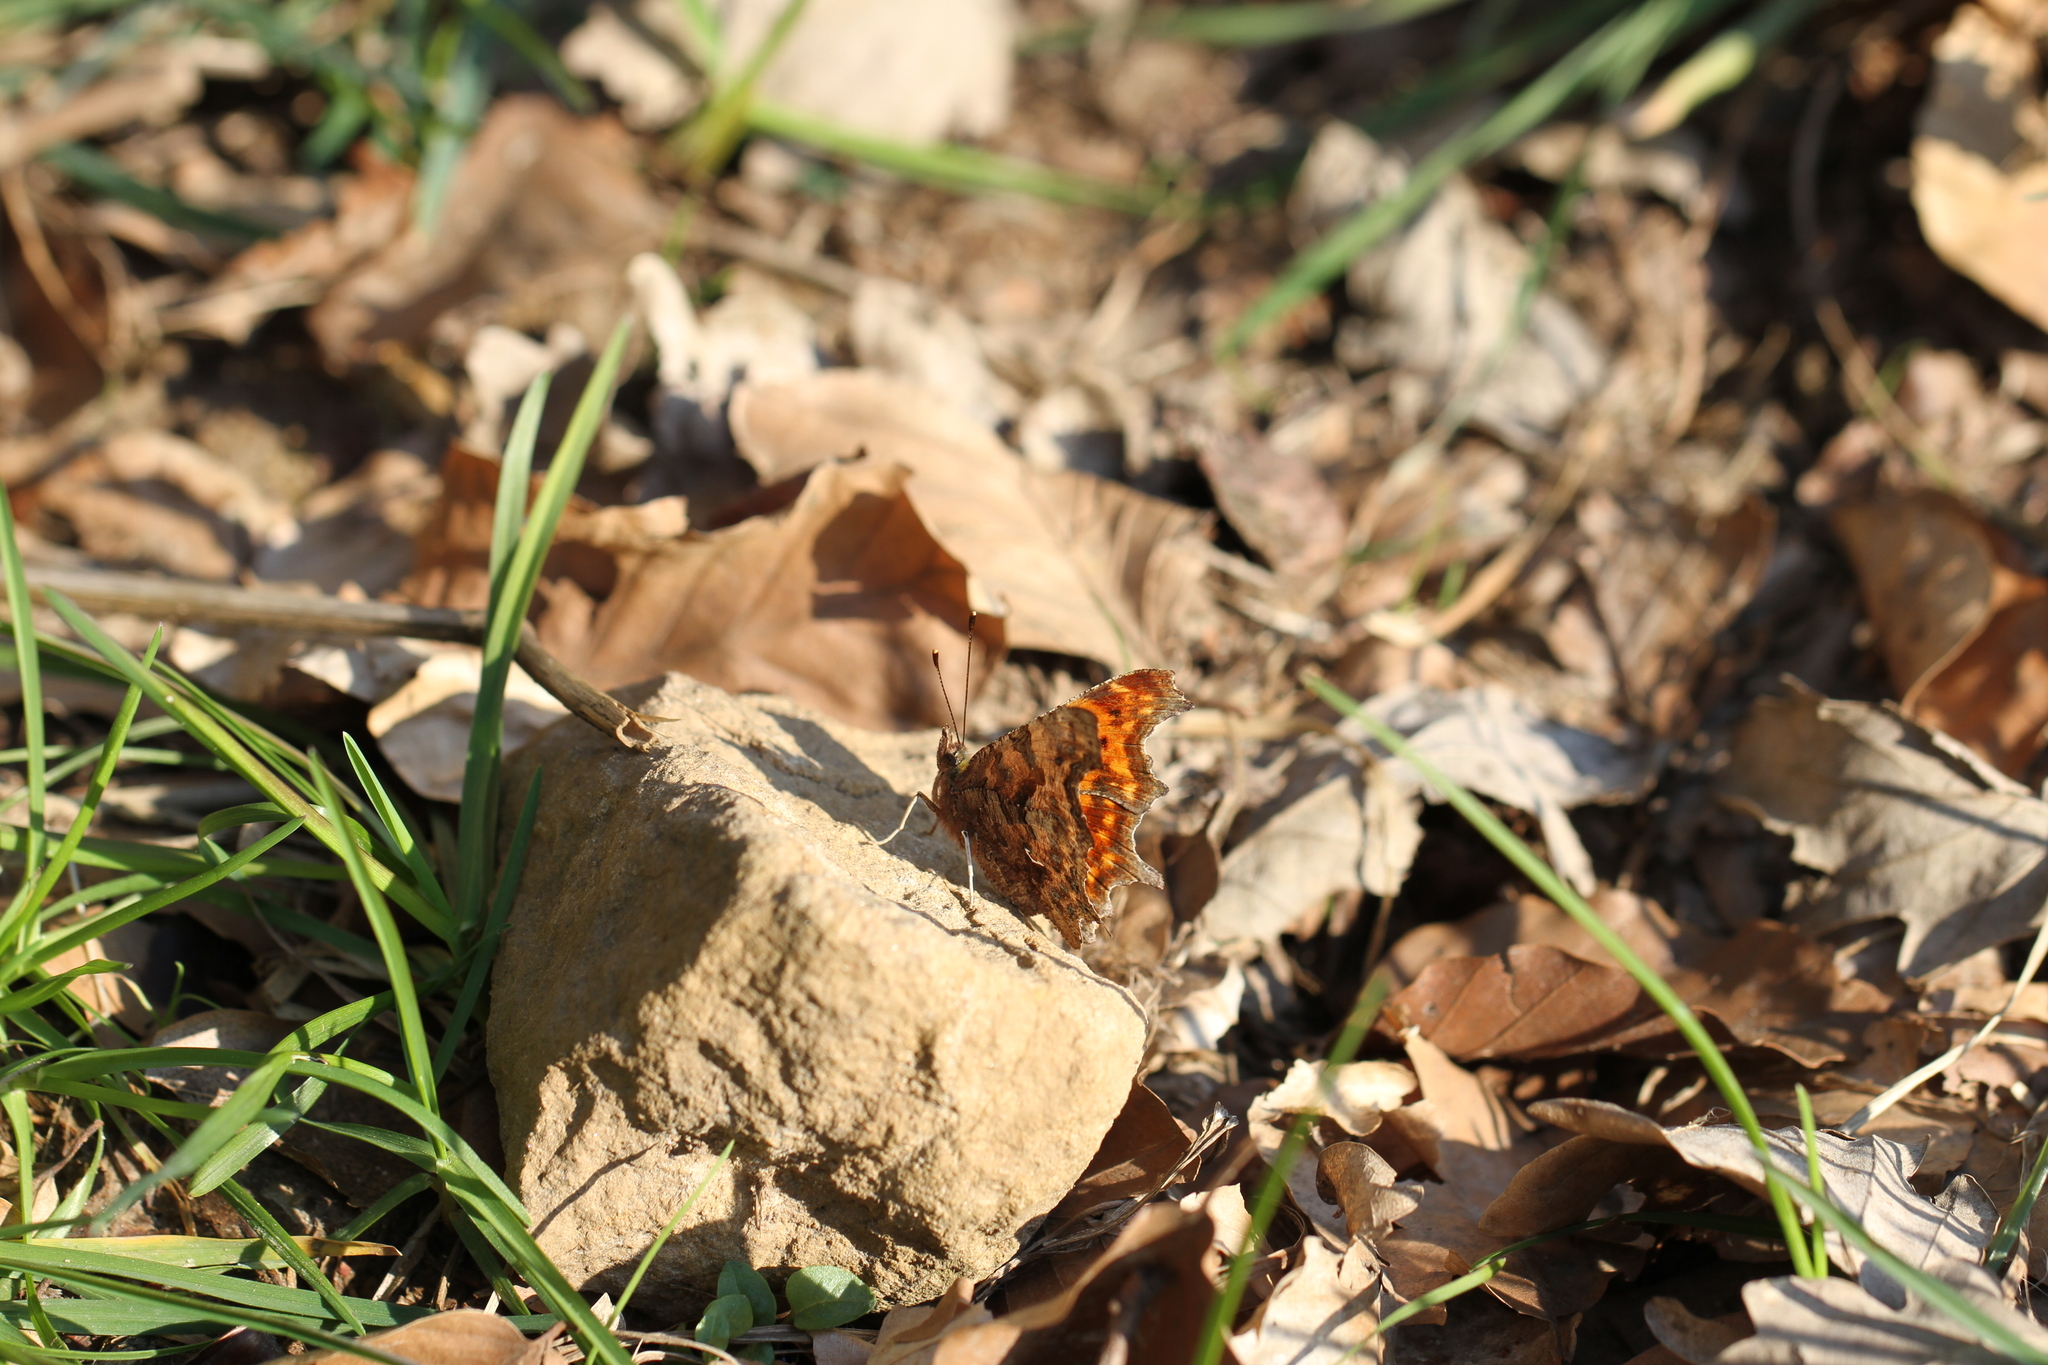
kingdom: Animalia
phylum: Arthropoda
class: Insecta
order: Lepidoptera
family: Nymphalidae
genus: Polygonia
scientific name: Polygonia c-album
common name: Comma
